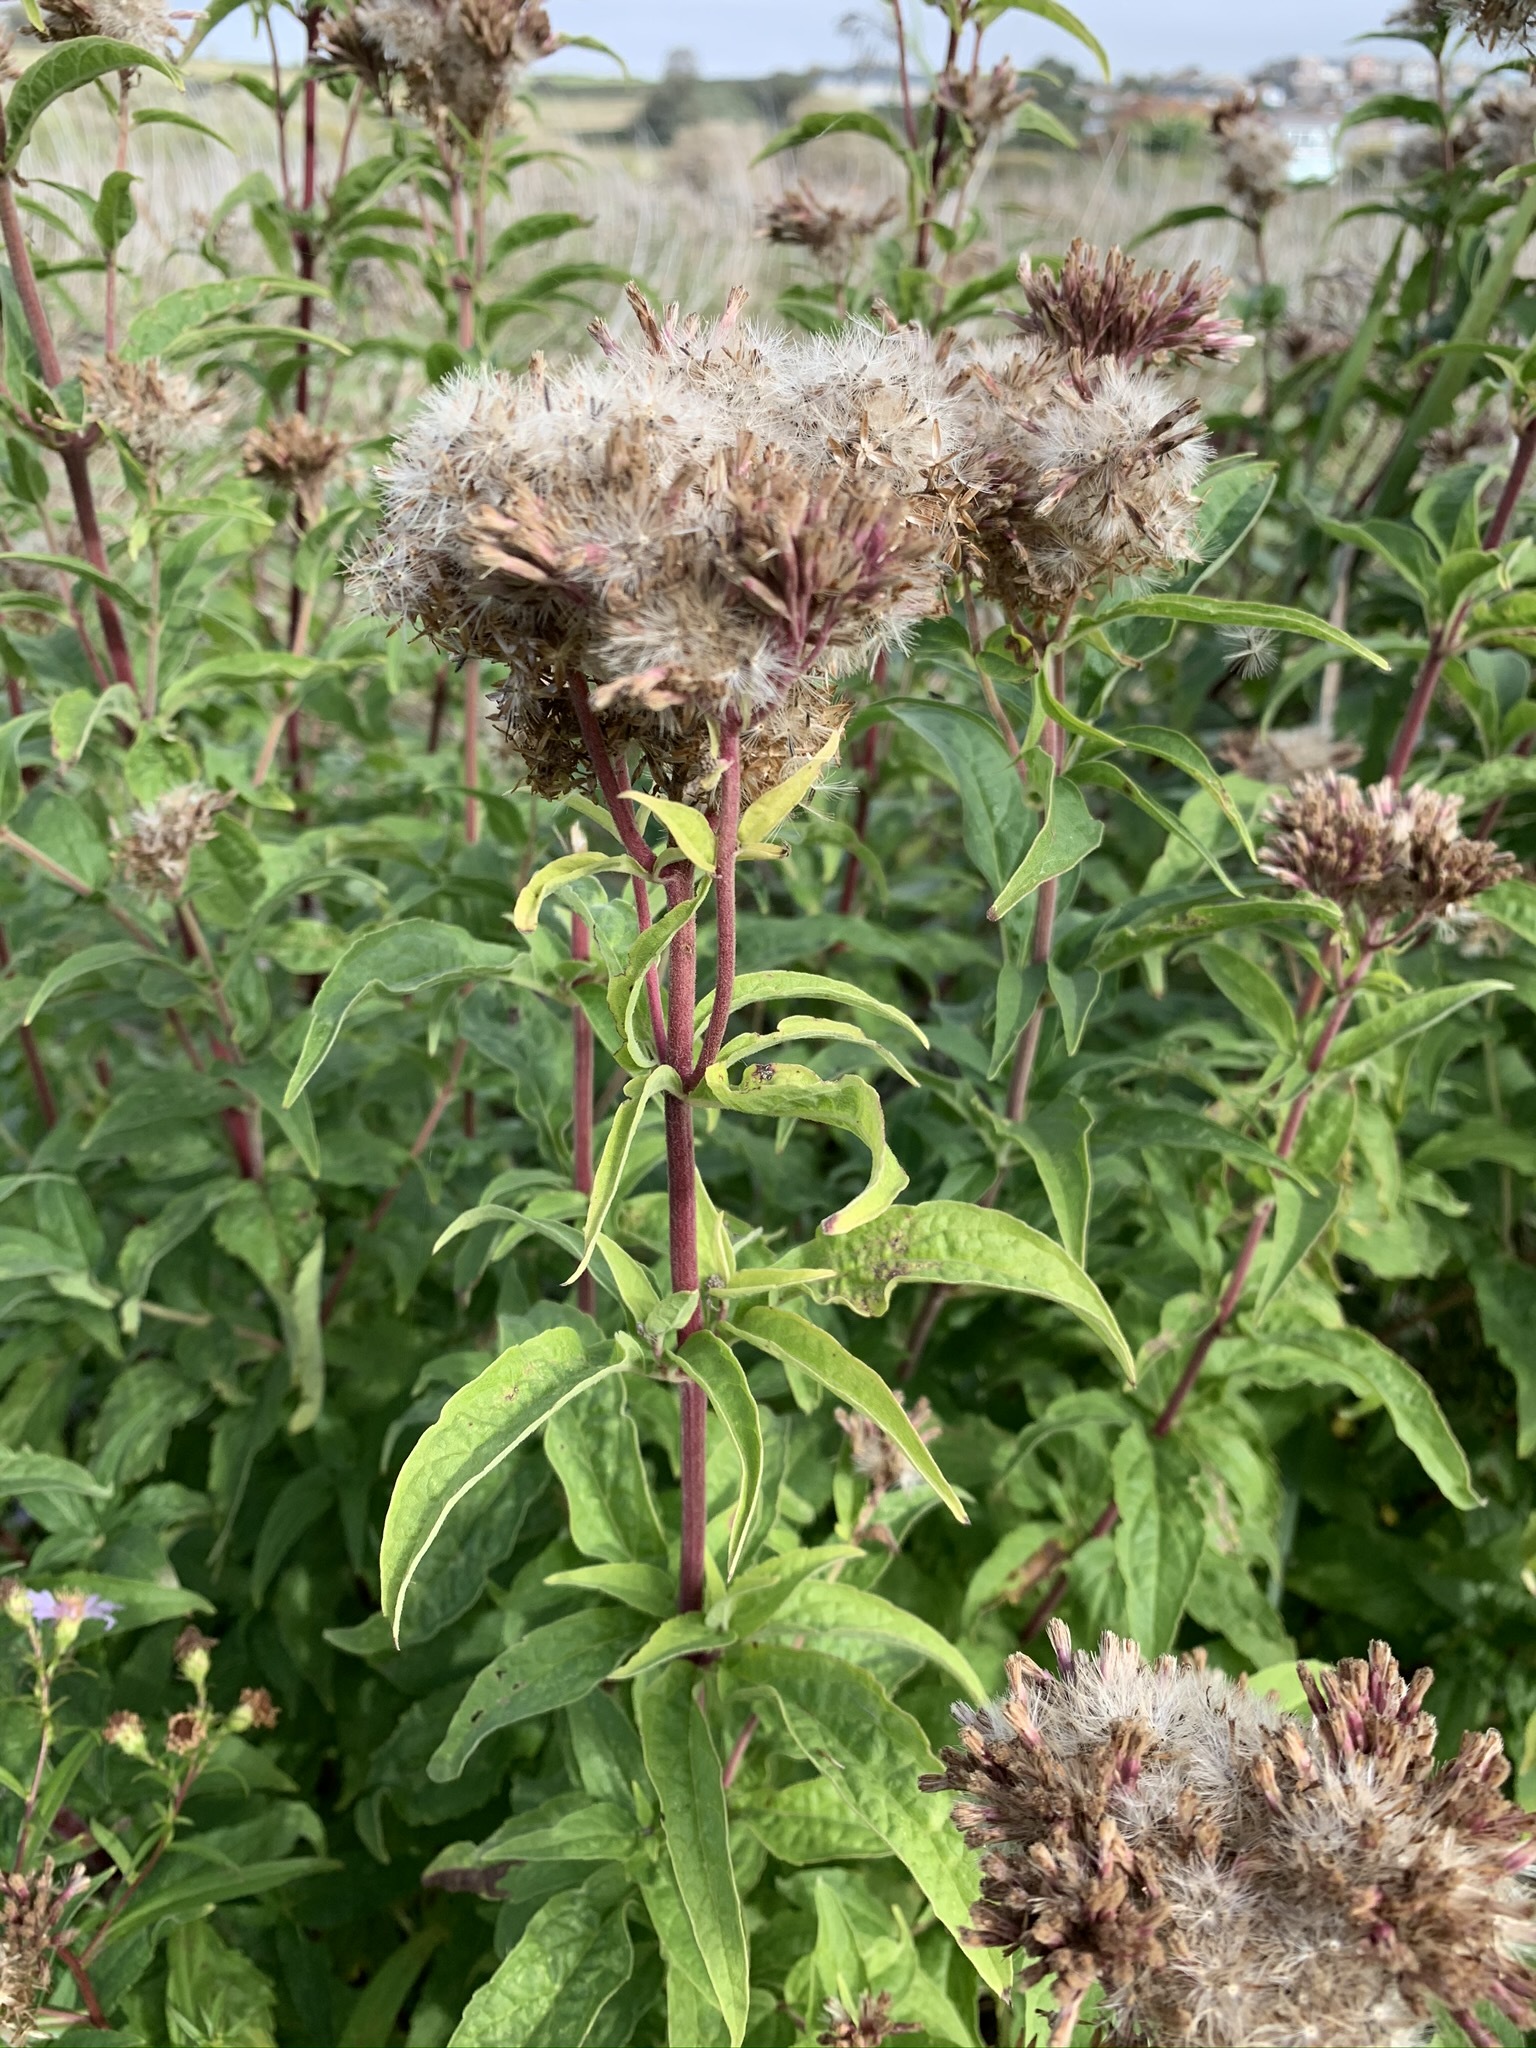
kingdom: Plantae
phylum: Tracheophyta
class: Magnoliopsida
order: Asterales
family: Asteraceae
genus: Eupatorium
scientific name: Eupatorium cannabinum
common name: Hemp-agrimony
